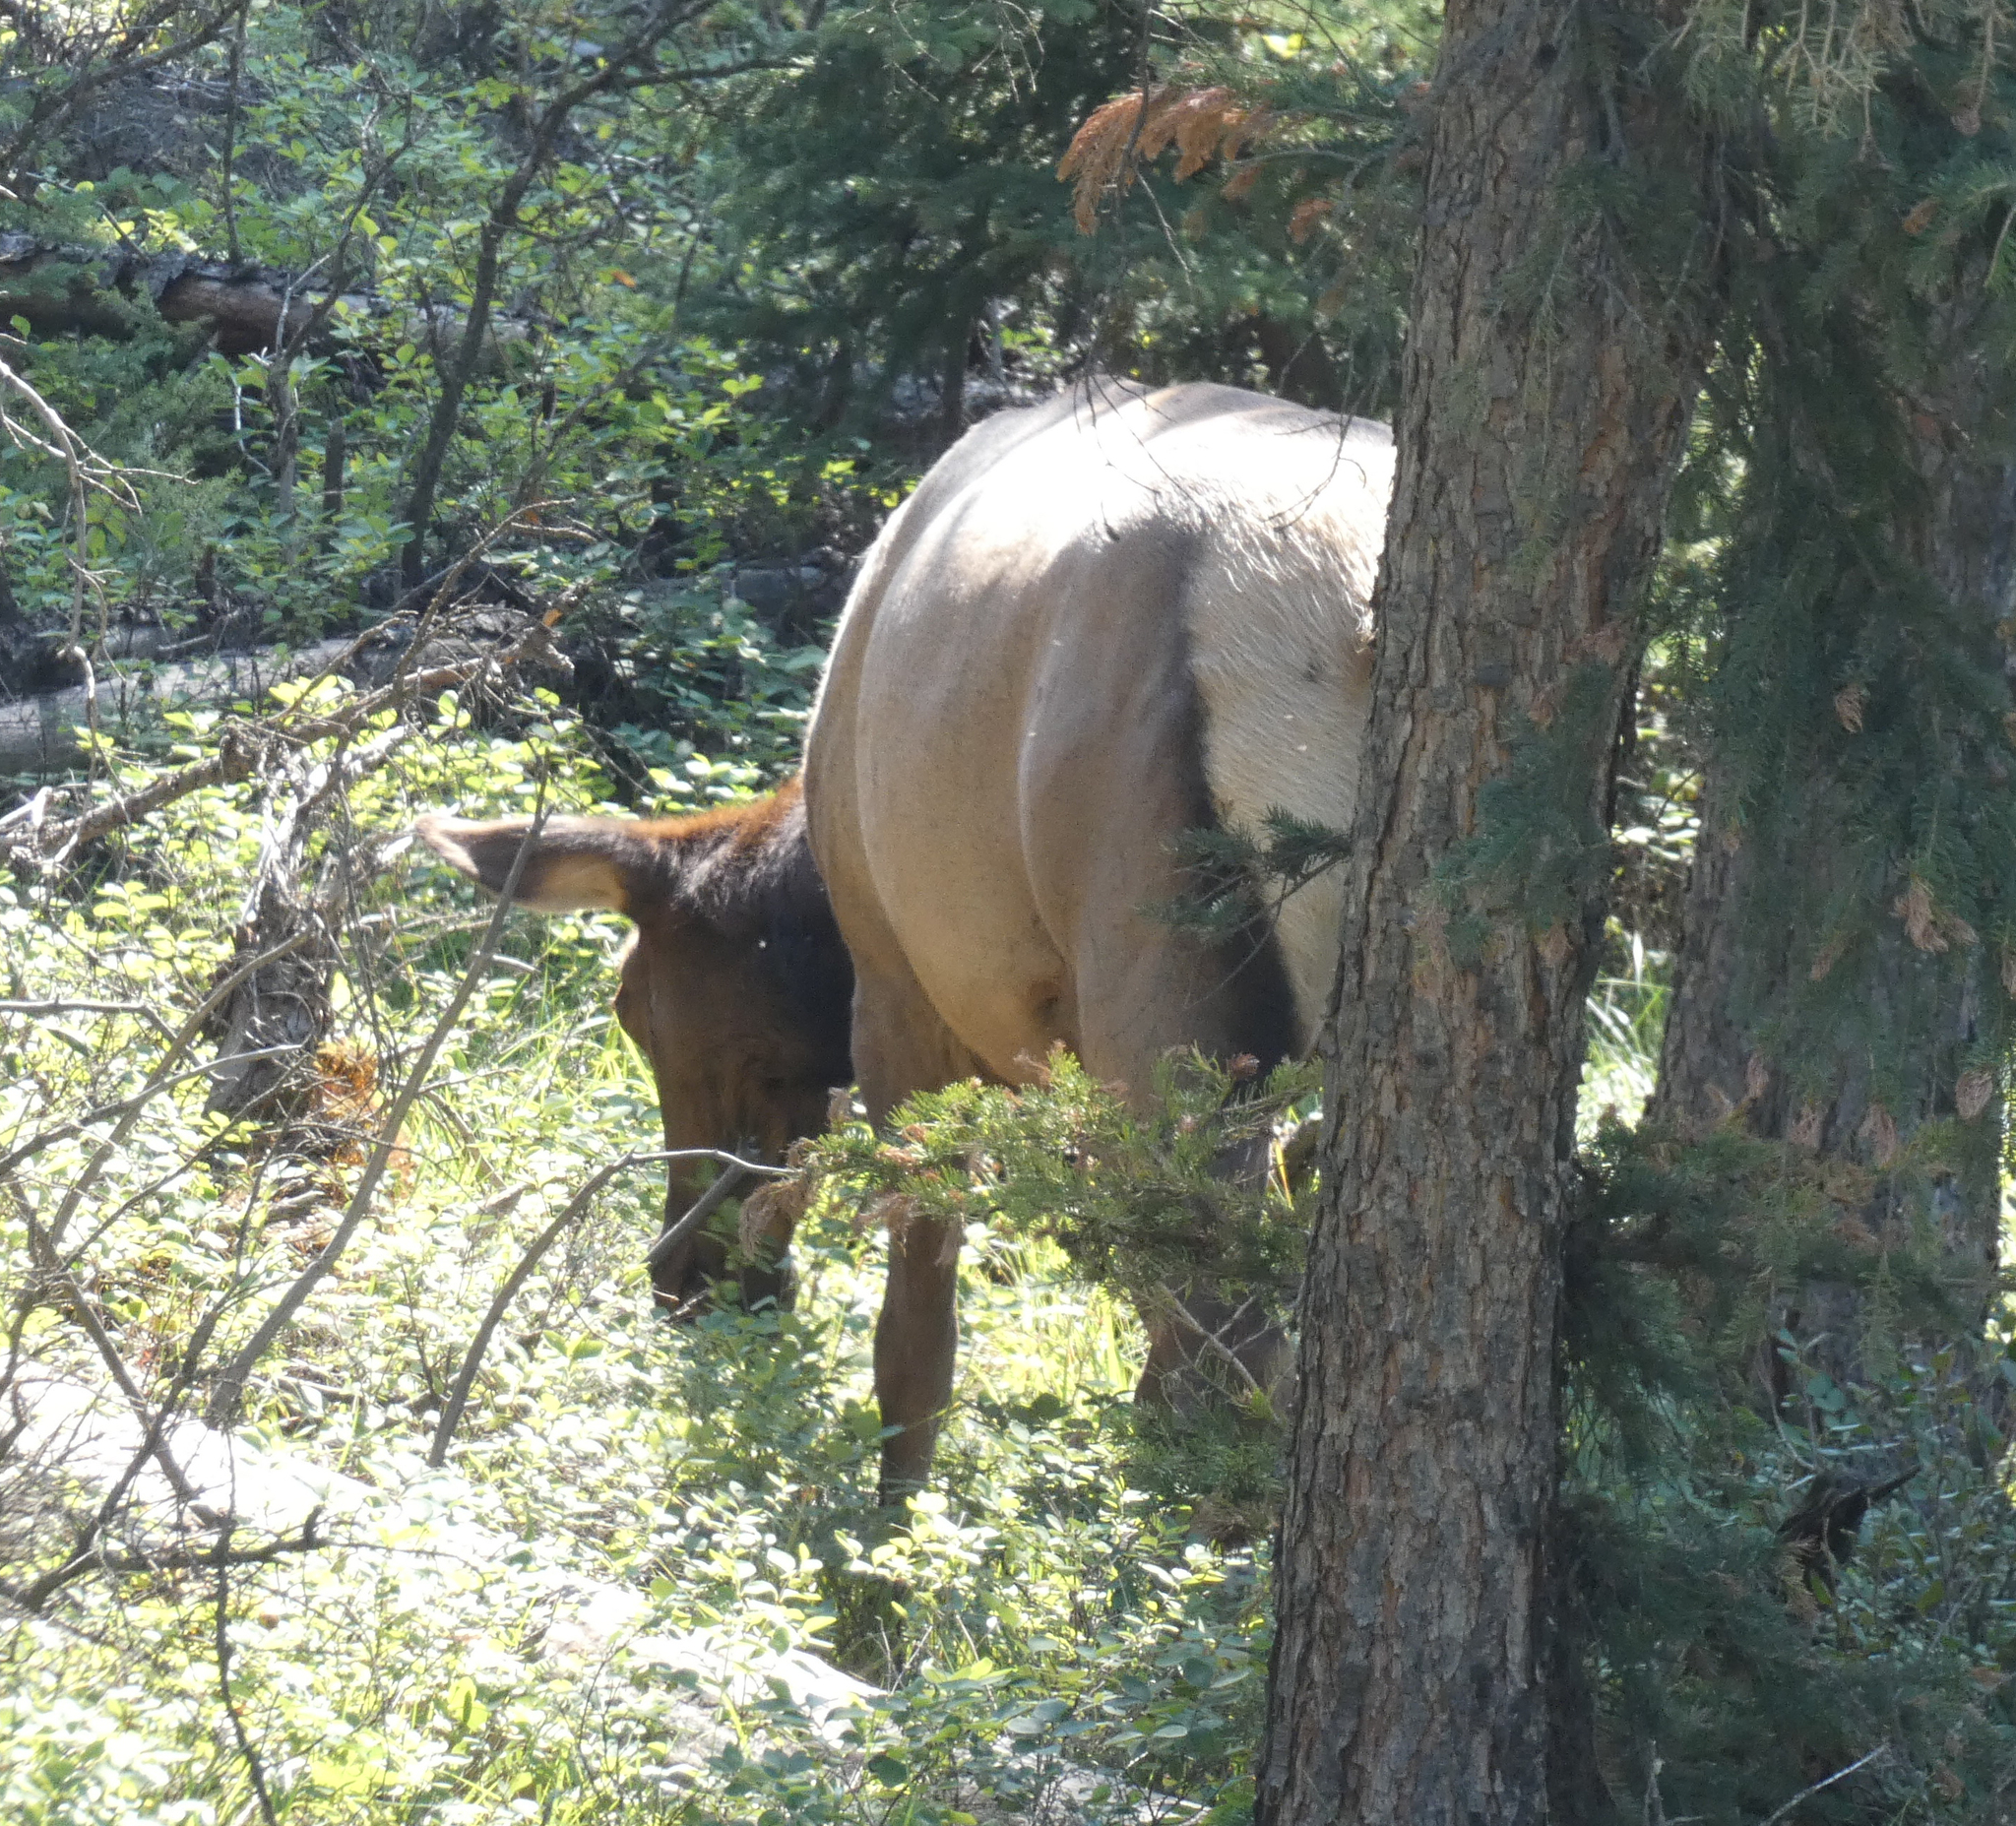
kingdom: Animalia
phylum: Chordata
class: Mammalia
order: Artiodactyla
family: Cervidae
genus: Cervus
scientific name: Cervus elaphus
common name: Red deer
